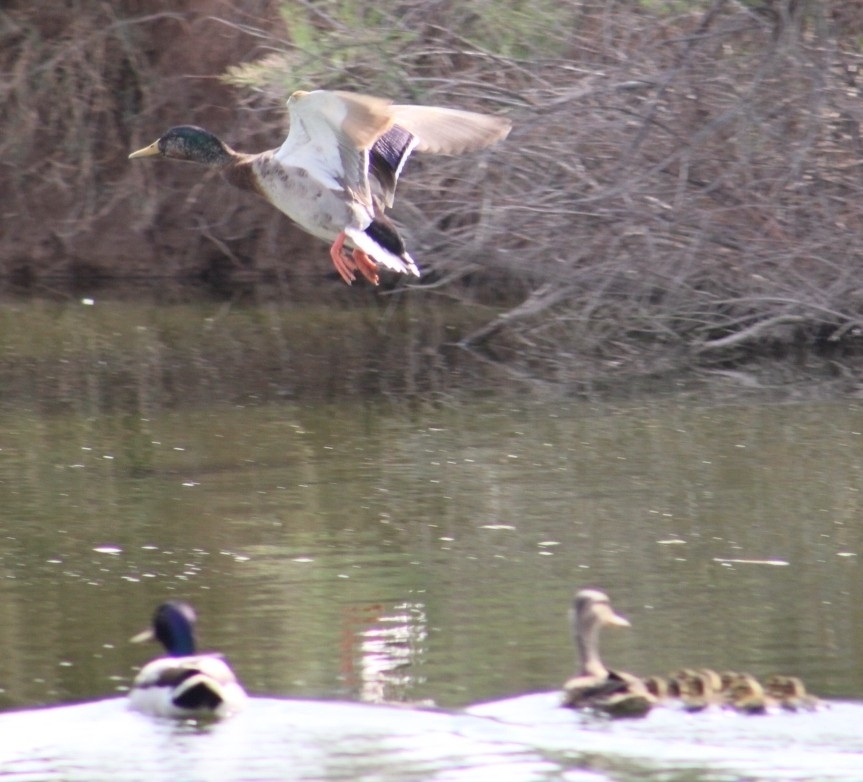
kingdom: Animalia
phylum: Chordata
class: Aves
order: Anseriformes
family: Anatidae
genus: Anas
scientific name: Anas platyrhynchos
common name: Mallard
